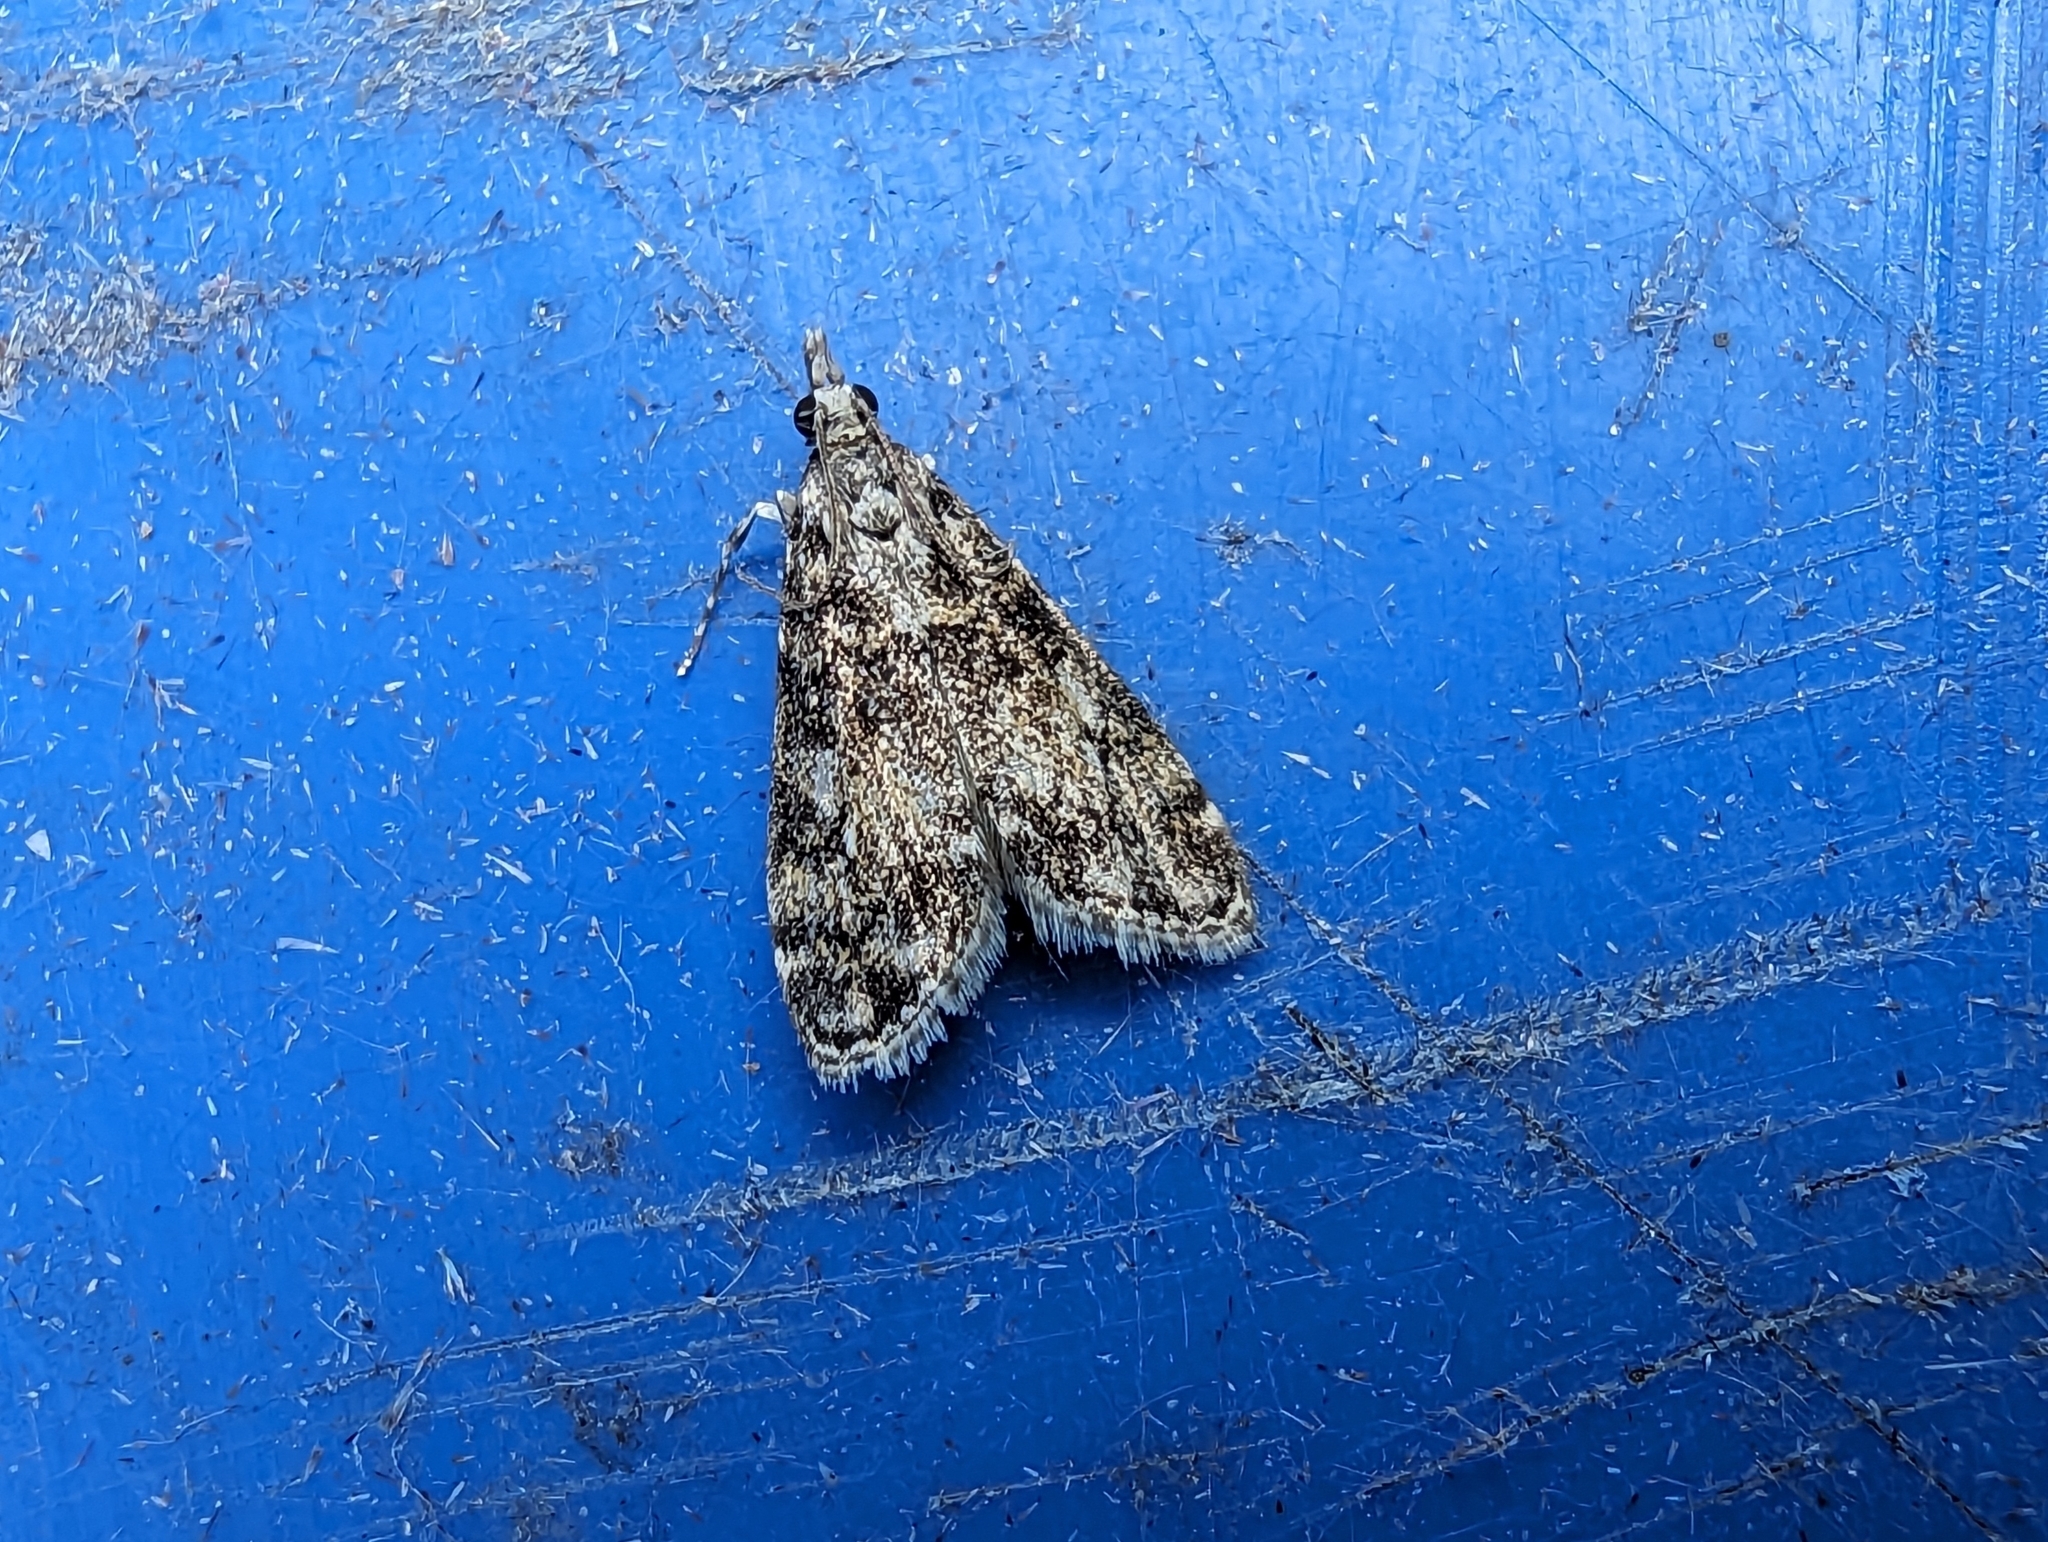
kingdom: Animalia
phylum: Arthropoda
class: Insecta
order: Lepidoptera
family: Crambidae
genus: Eudonia
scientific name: Eudonia lacustrata
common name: Little grey
